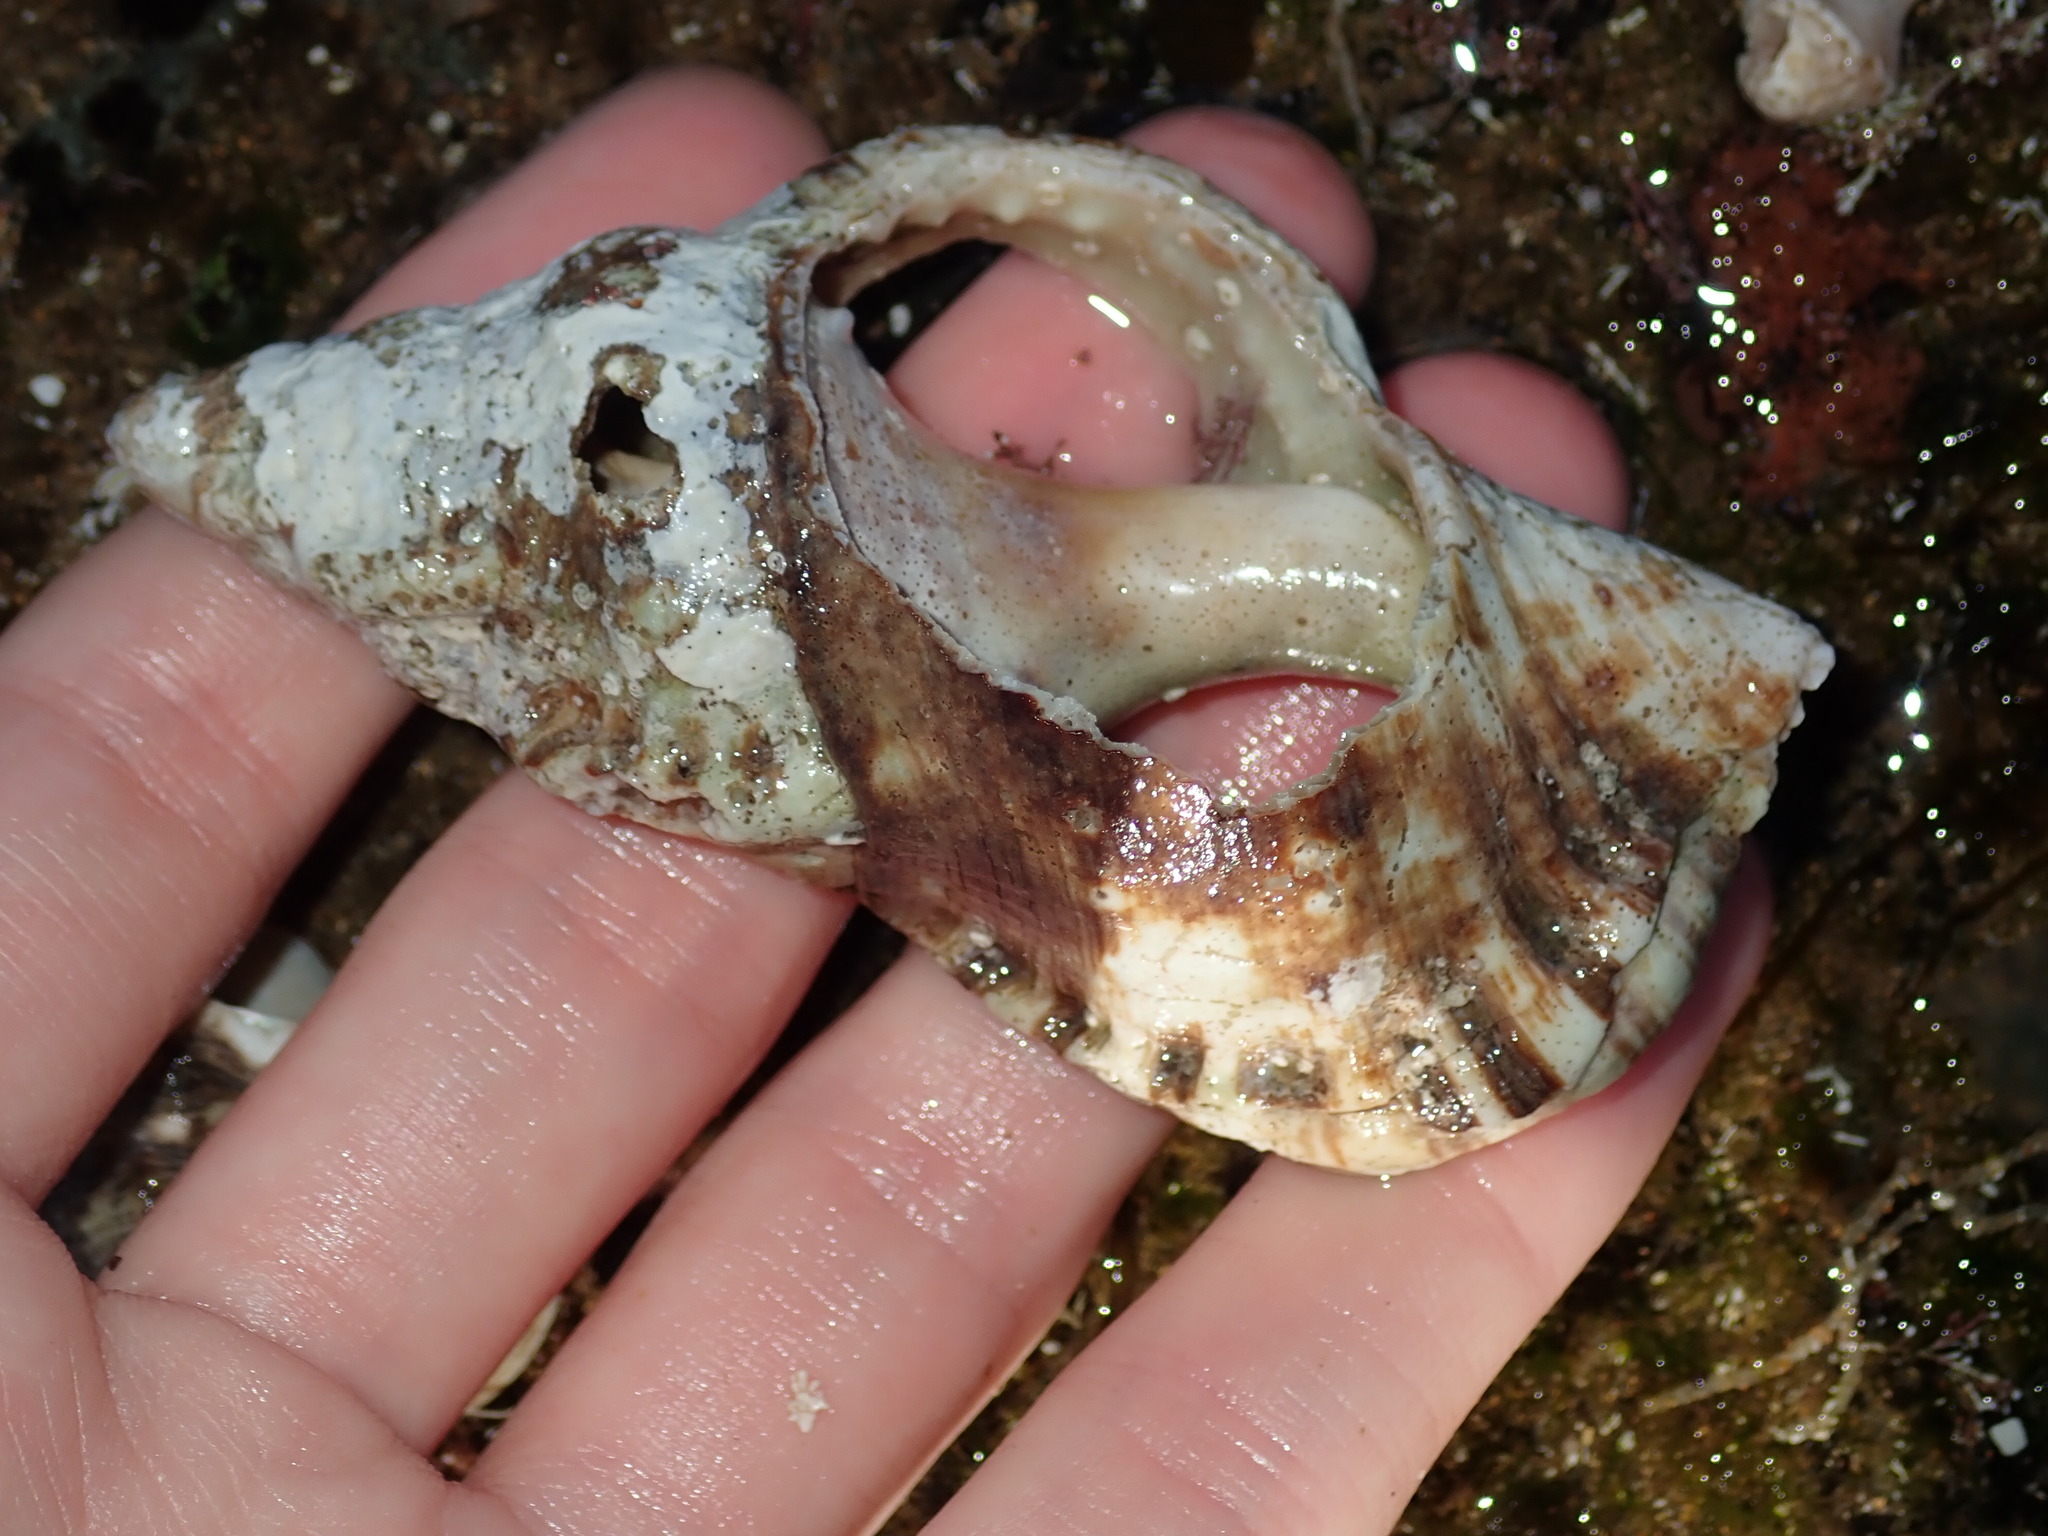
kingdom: Animalia
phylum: Mollusca
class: Gastropoda
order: Littorinimorpha
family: Ranellidae
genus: Ranella
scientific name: Ranella australasia
